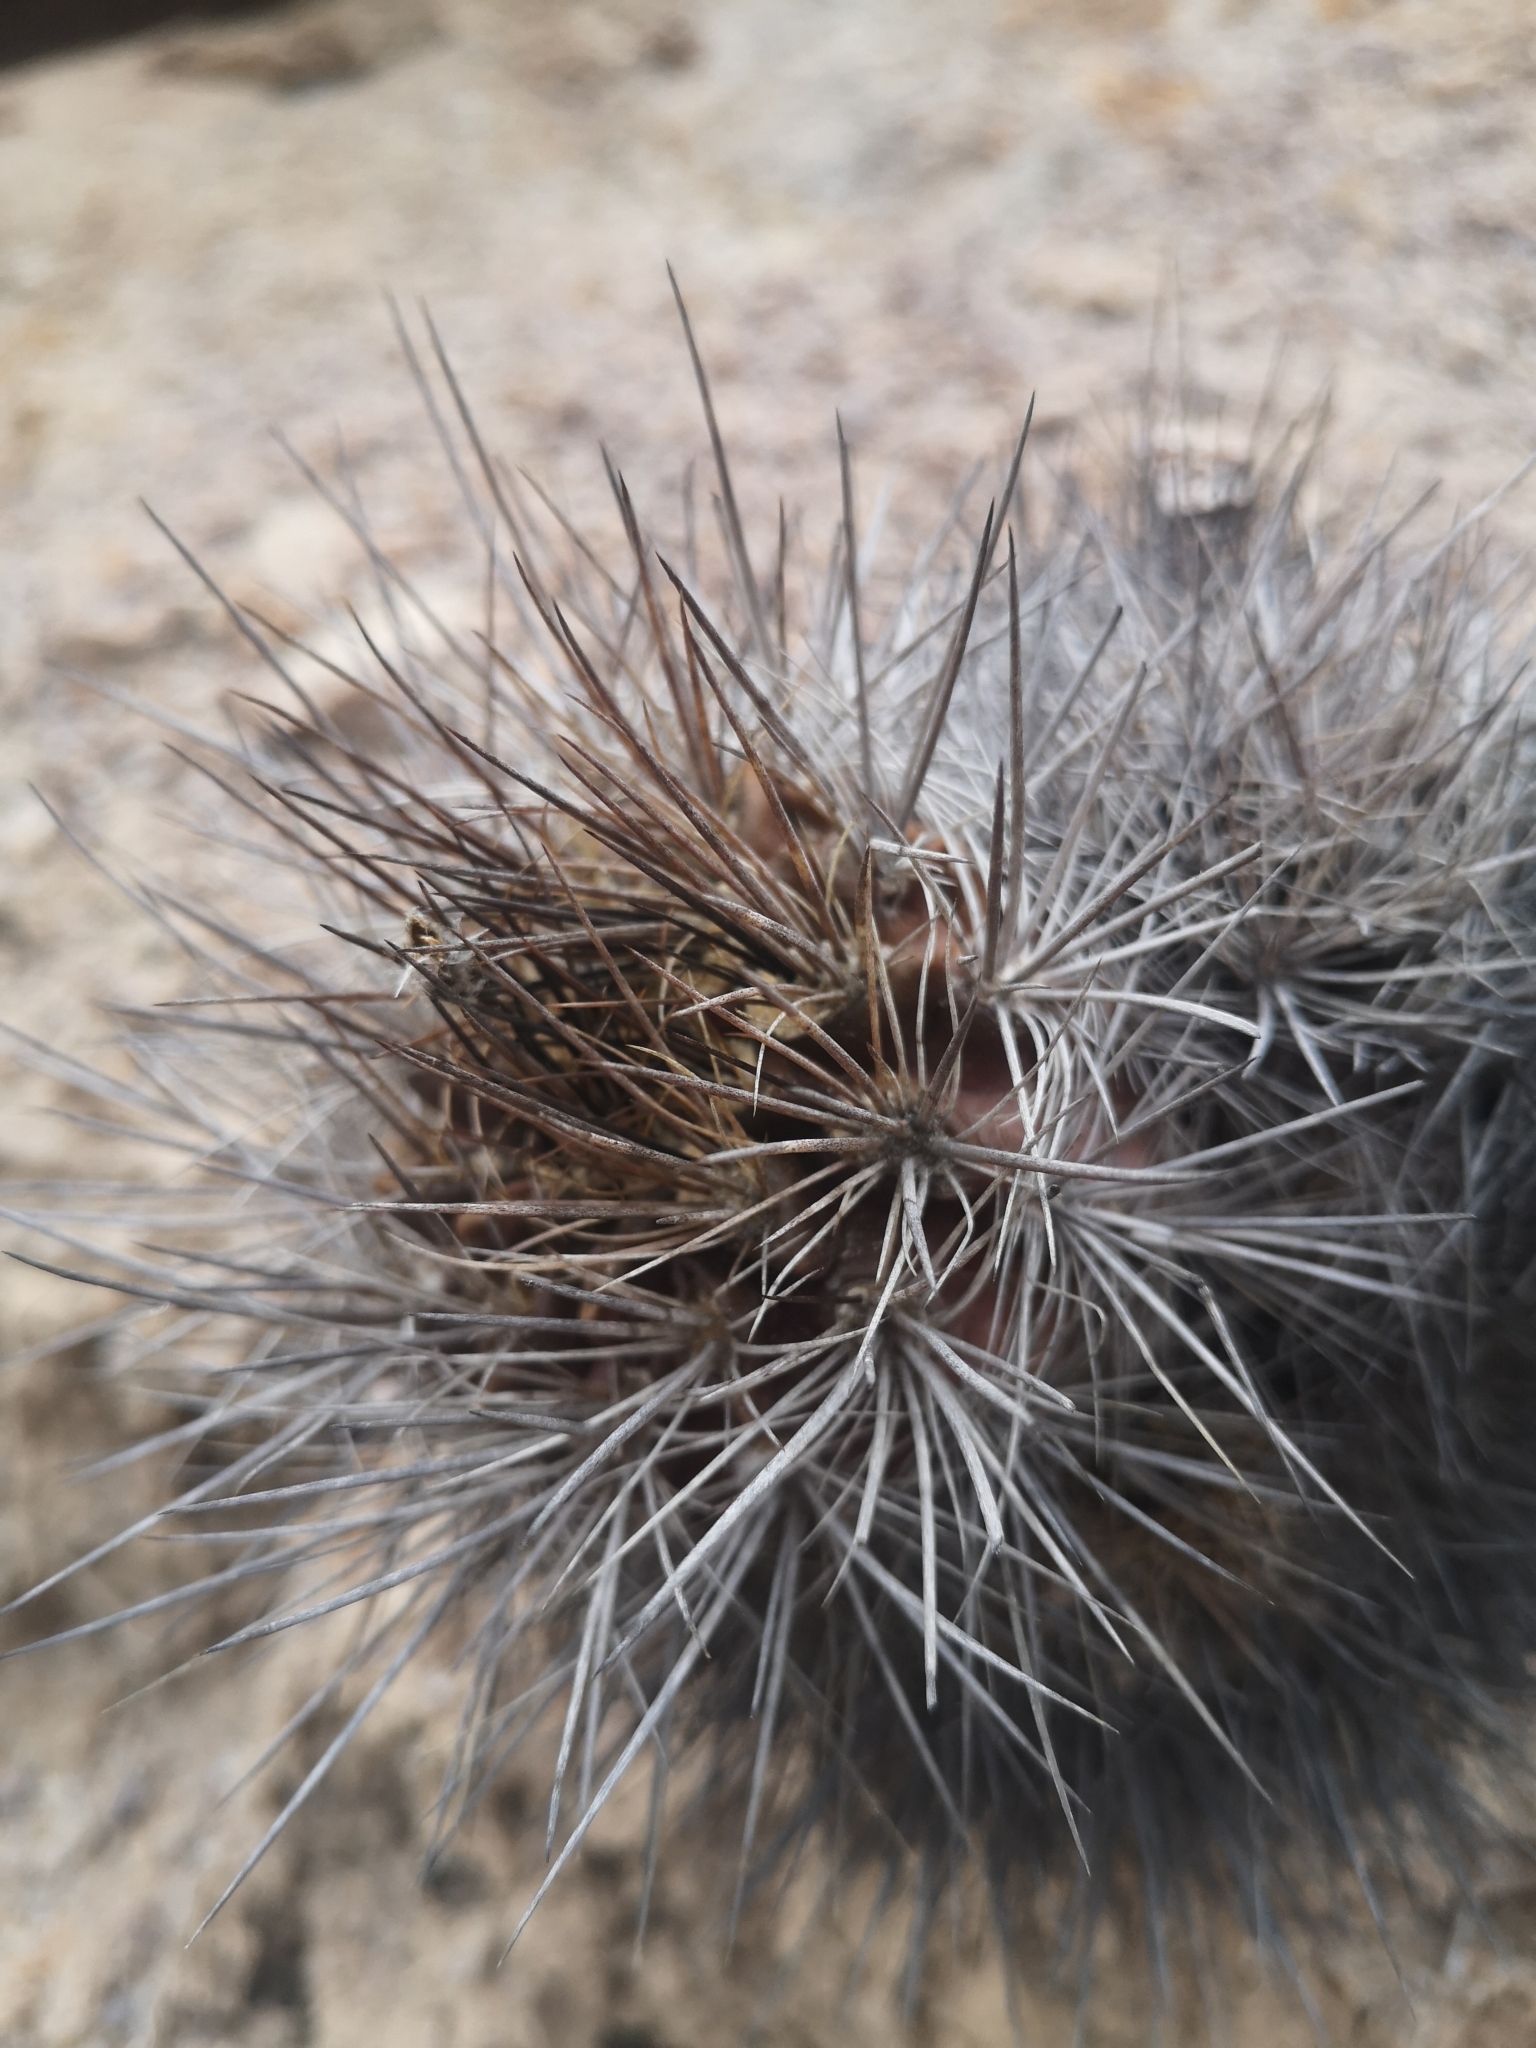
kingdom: Plantae
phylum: Tracheophyta
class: Magnoliopsida
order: Caryophyllales
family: Cactaceae
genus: Eriosyce
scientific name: Eriosyce taltalensis
